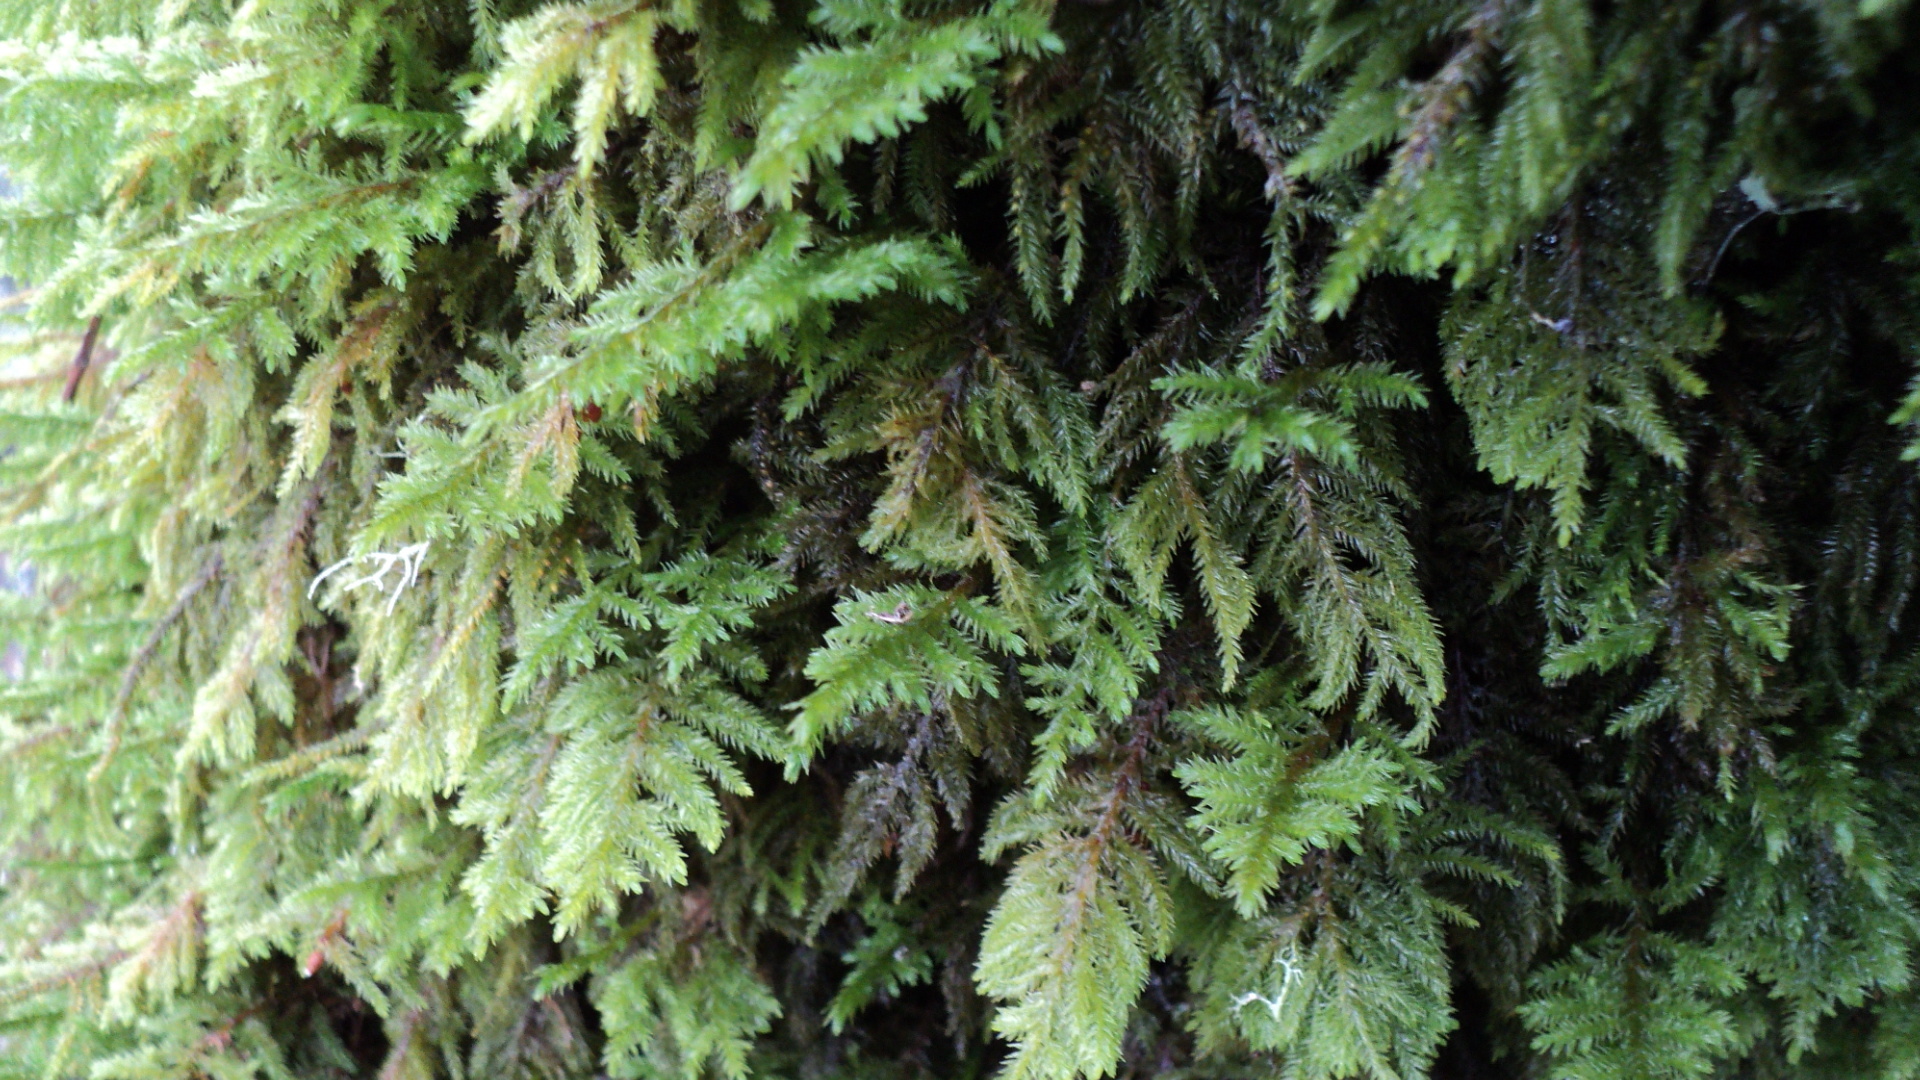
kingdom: Plantae
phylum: Bryophyta
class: Bryopsida
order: Hypnales
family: Cryphaeaceae
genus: Dendroalsia
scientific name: Dendroalsia abietina
